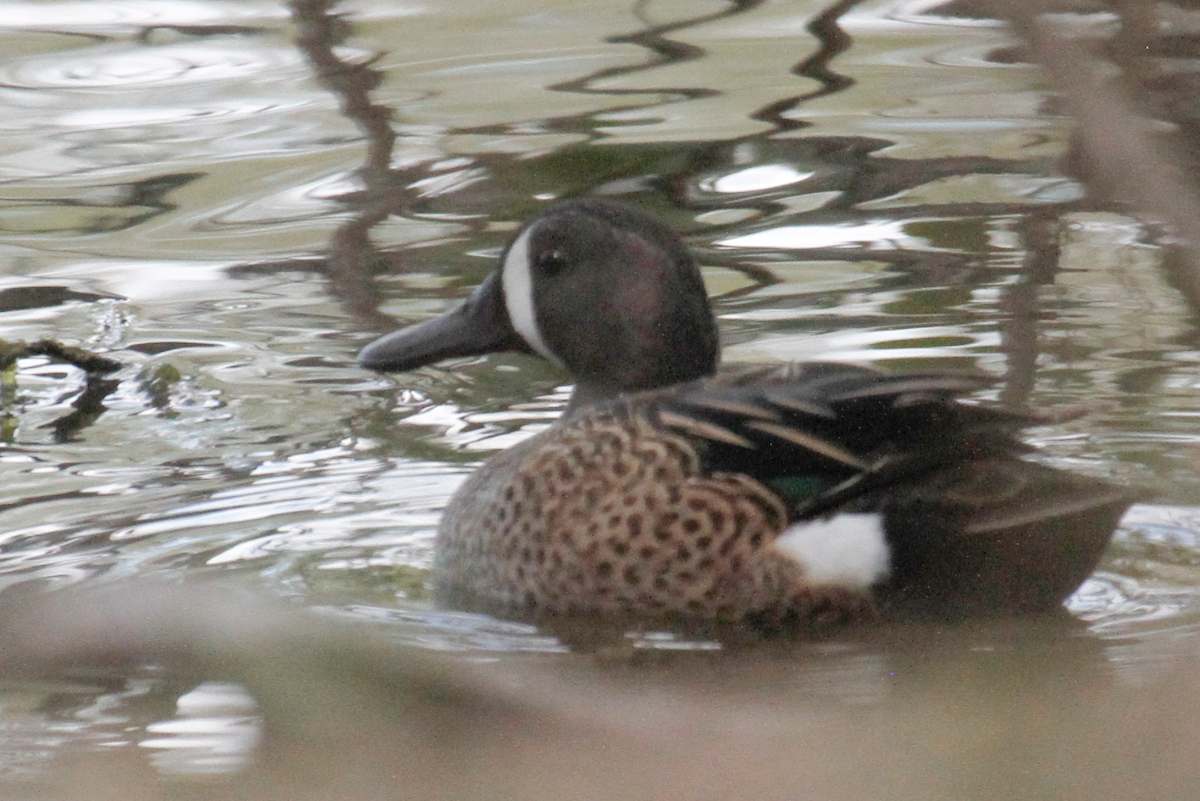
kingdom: Animalia
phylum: Chordata
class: Aves
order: Anseriformes
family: Anatidae
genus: Spatula
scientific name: Spatula discors
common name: Blue-winged teal
